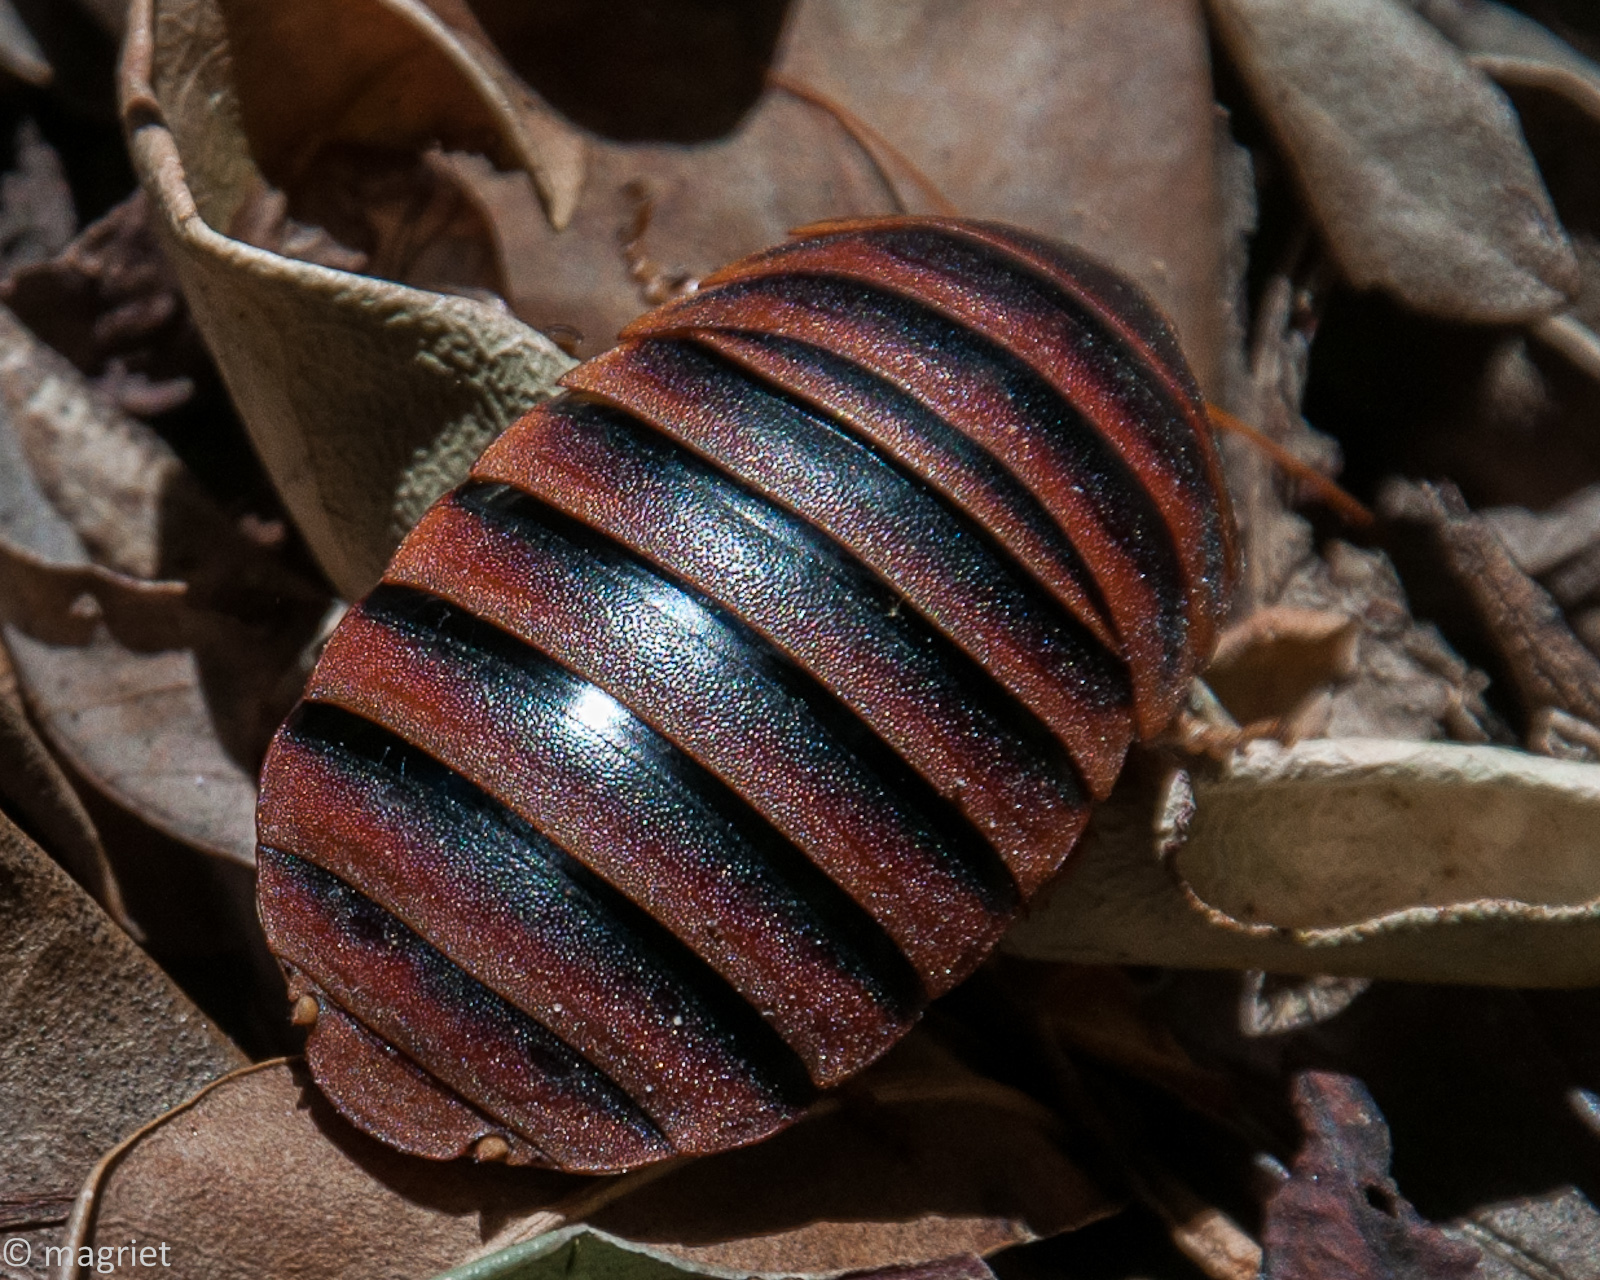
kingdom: Animalia
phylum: Arthropoda
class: Insecta
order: Blattodea
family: Blaberidae
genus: Aptera
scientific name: Aptera fusca
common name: Cape mountain cockroach
